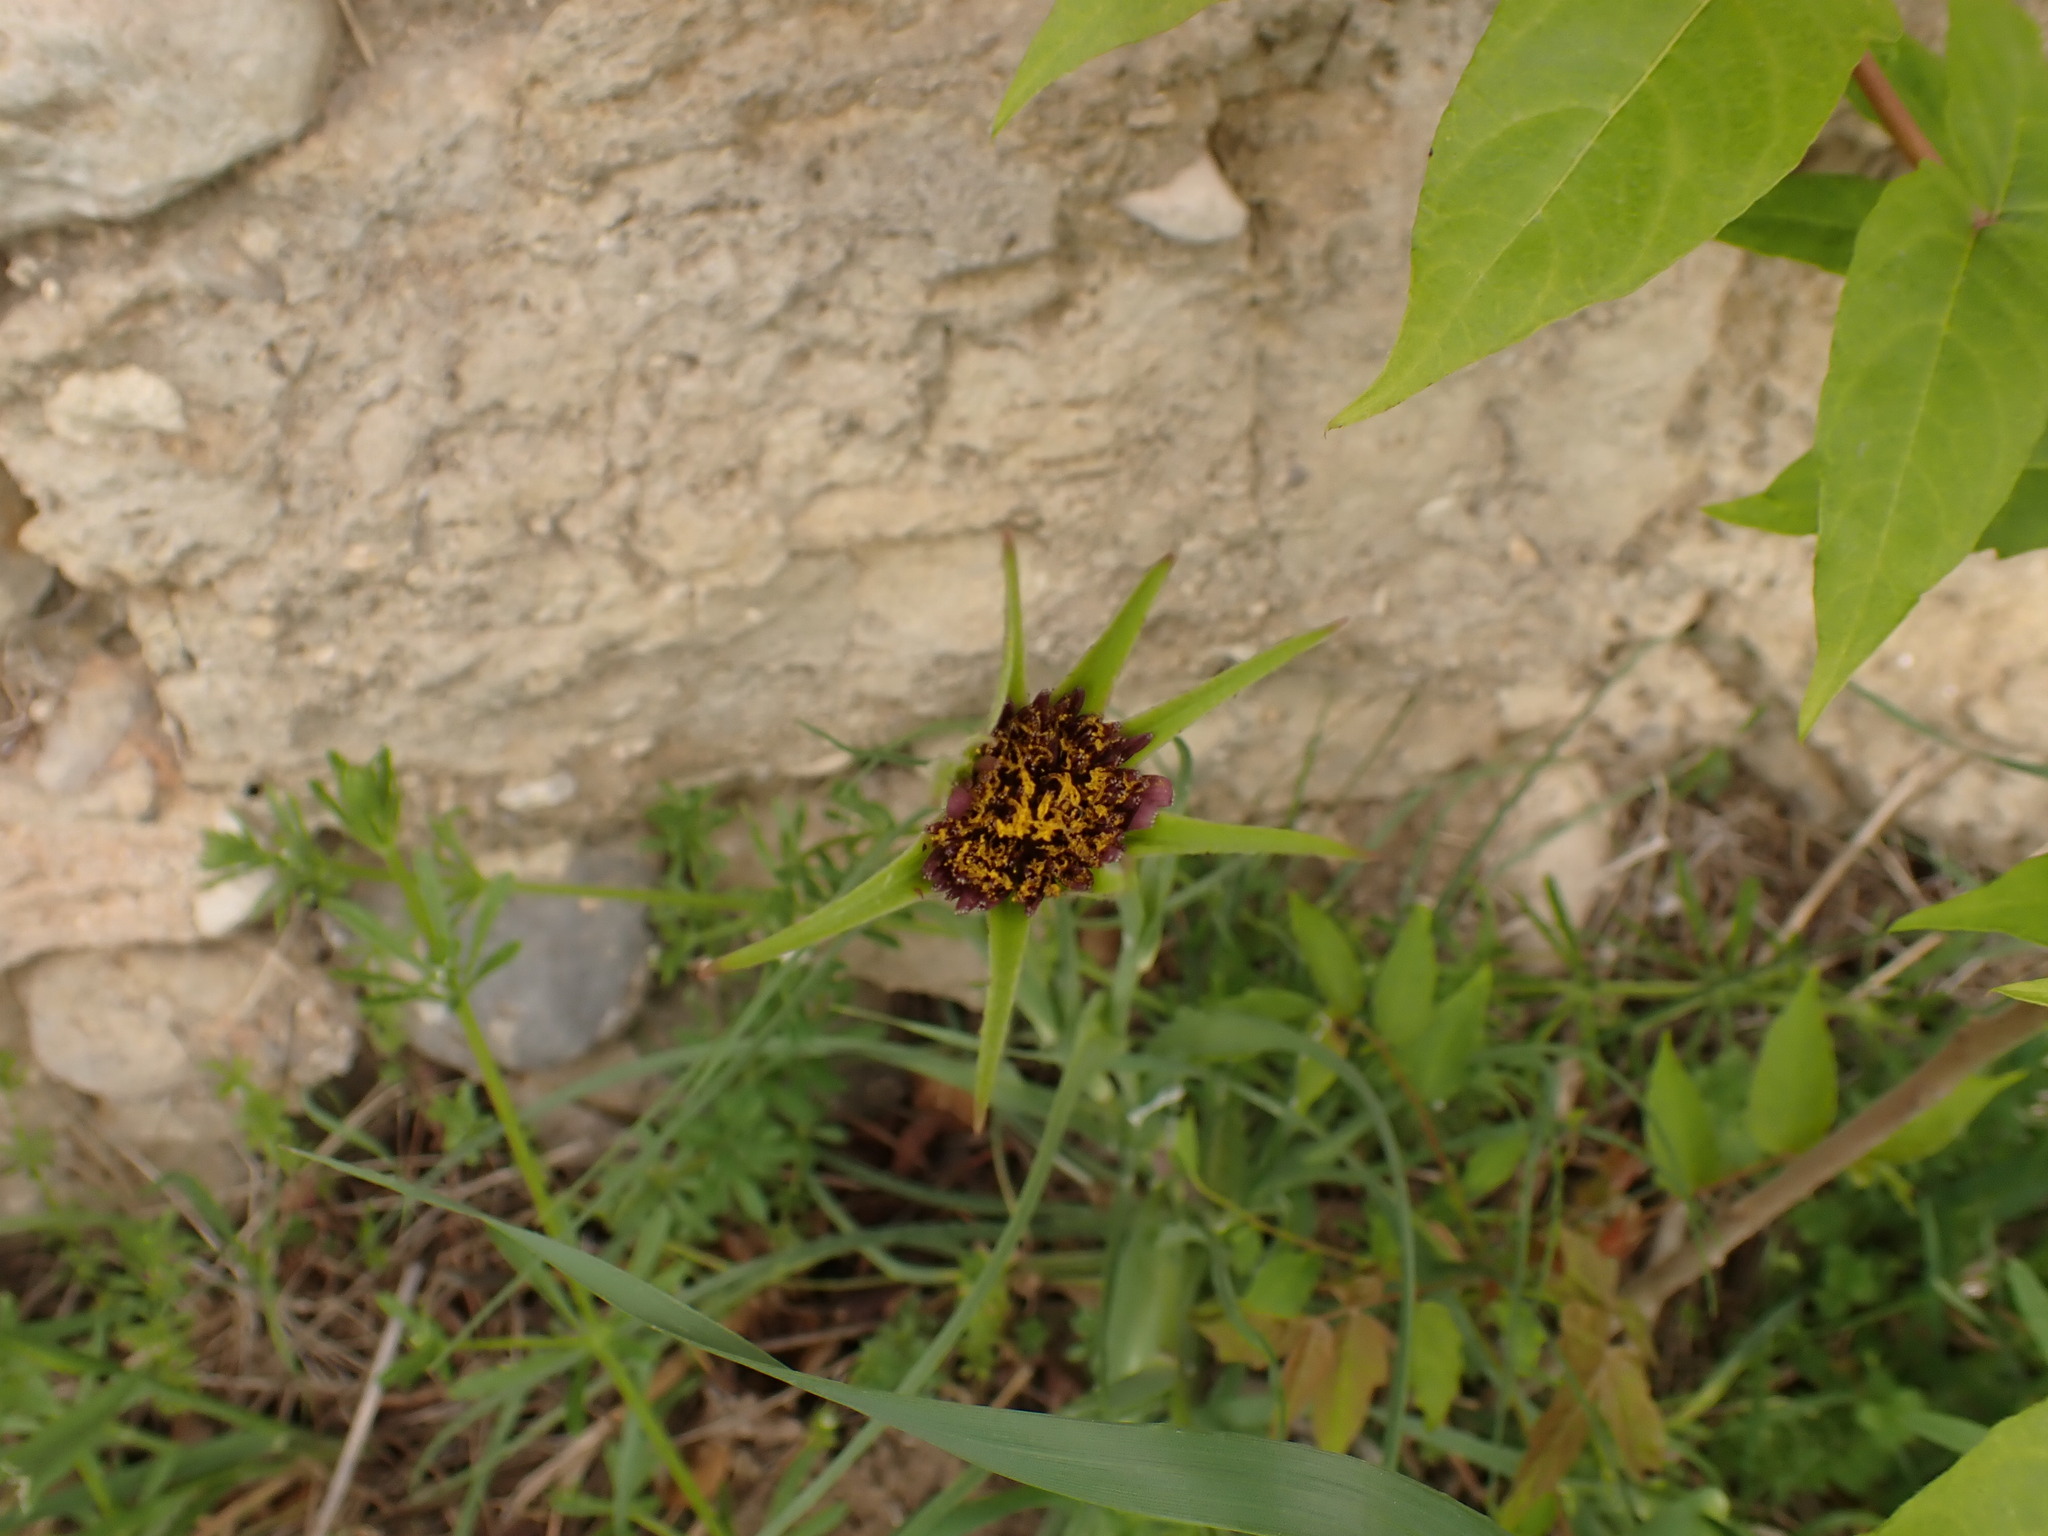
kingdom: Plantae
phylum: Tracheophyta
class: Magnoliopsida
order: Asterales
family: Asteraceae
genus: Tragopogon
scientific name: Tragopogon porrifolius
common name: Salsify
